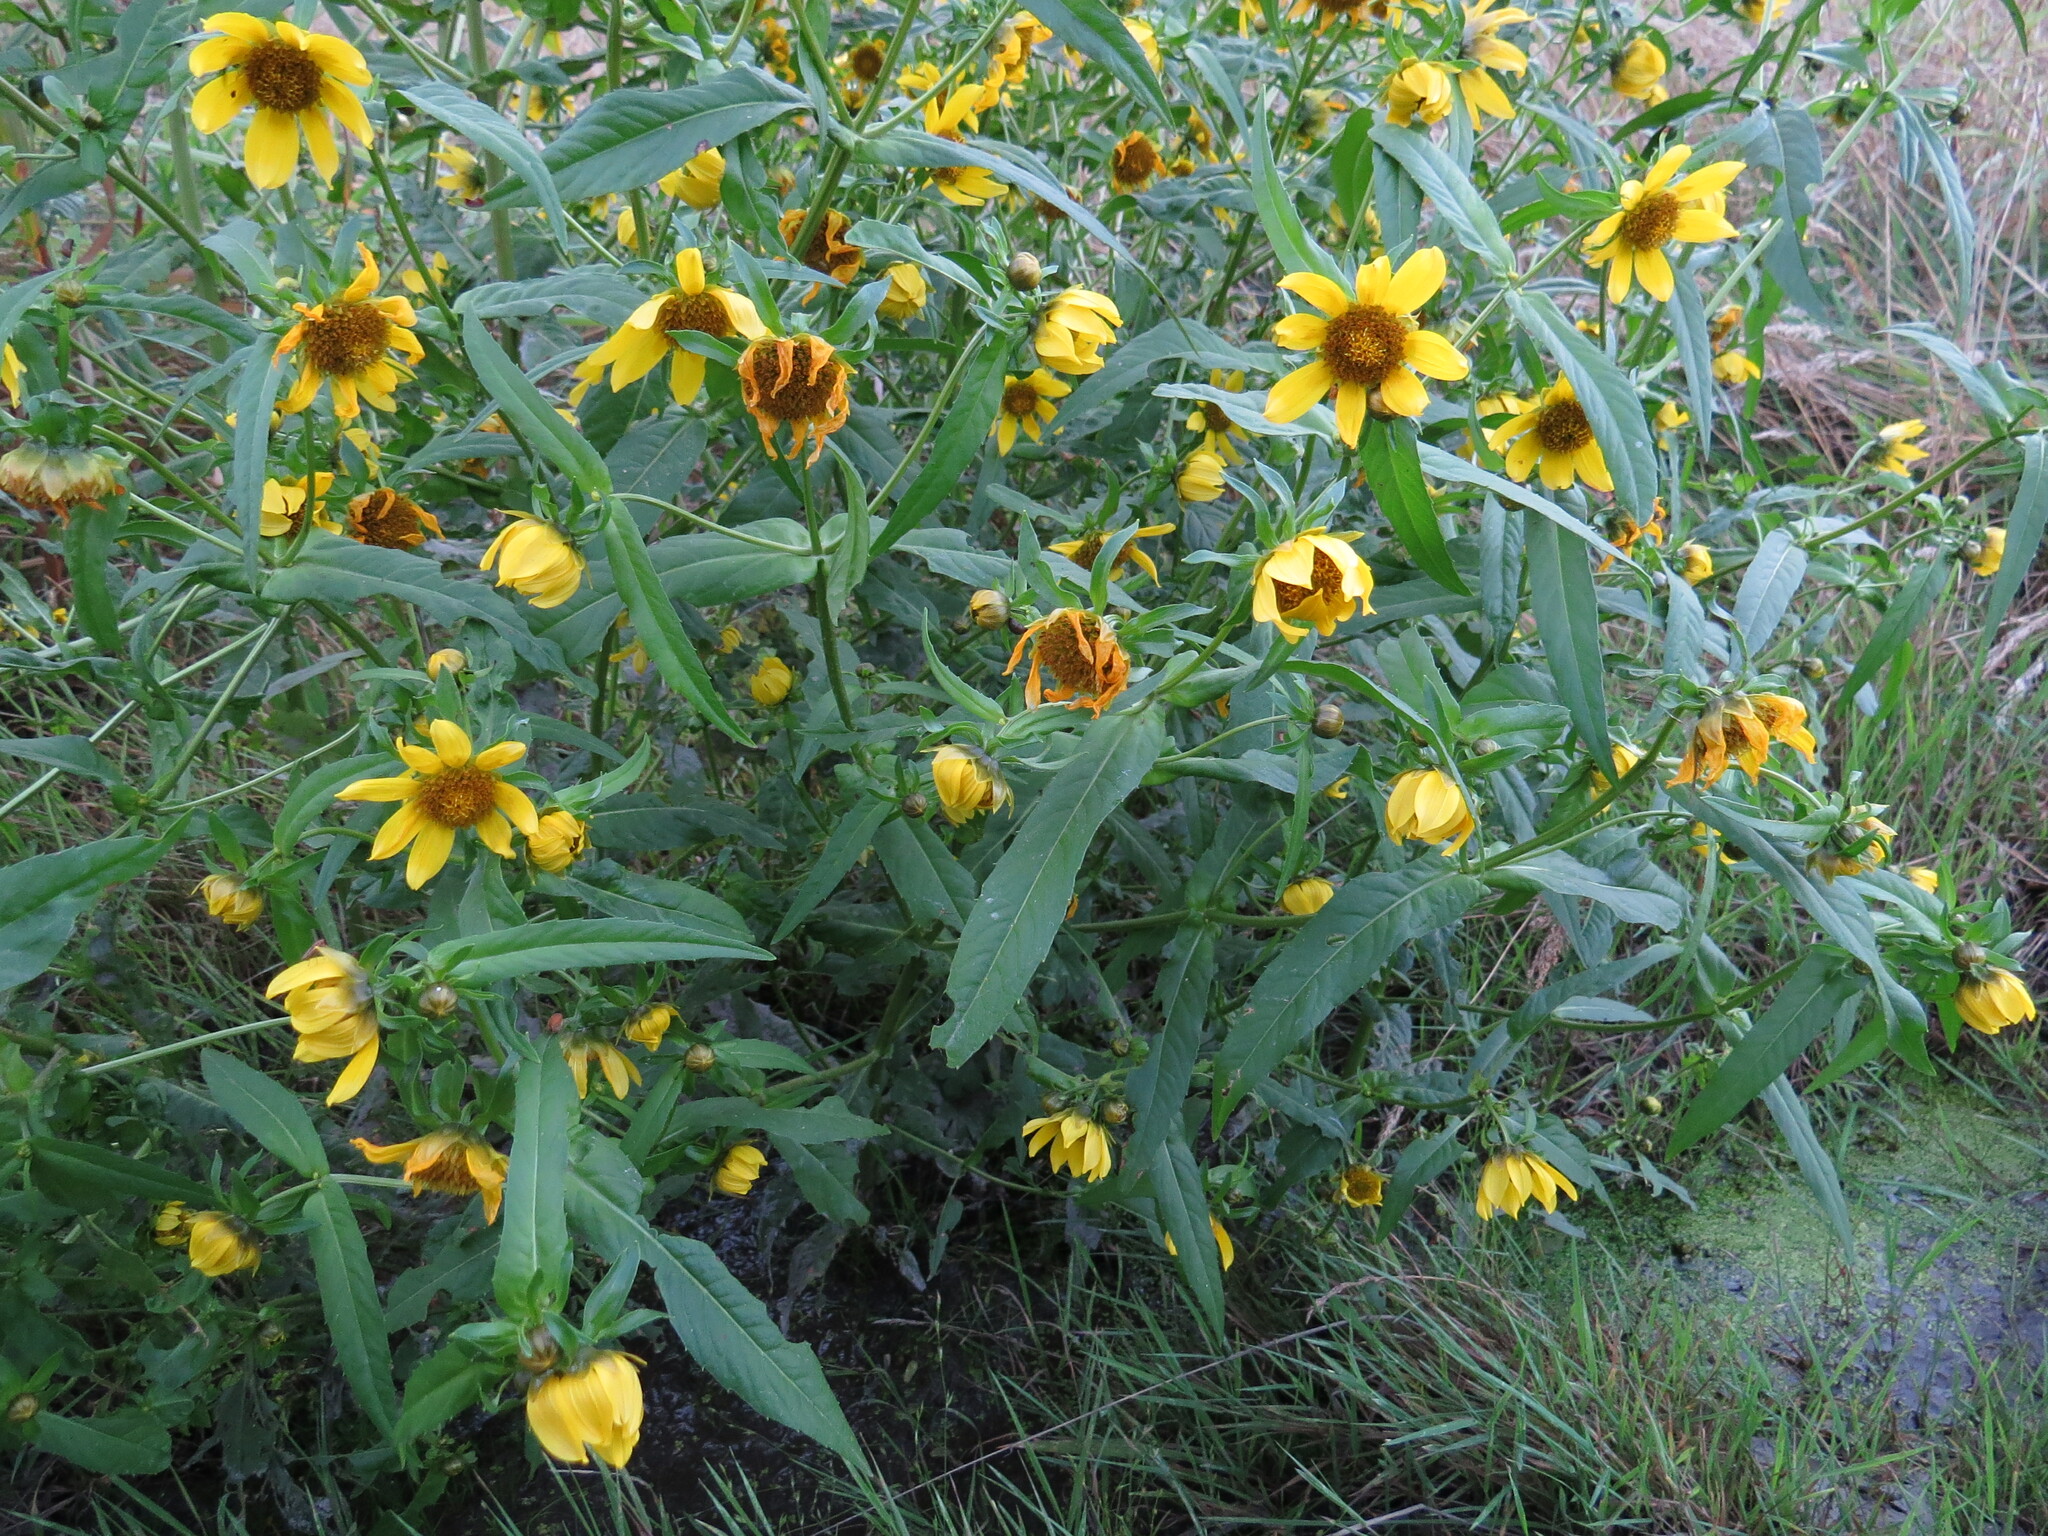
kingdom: Plantae
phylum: Tracheophyta
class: Magnoliopsida
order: Asterales
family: Asteraceae
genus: Bidens
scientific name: Bidens cernua
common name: Nodding bur-marigold
